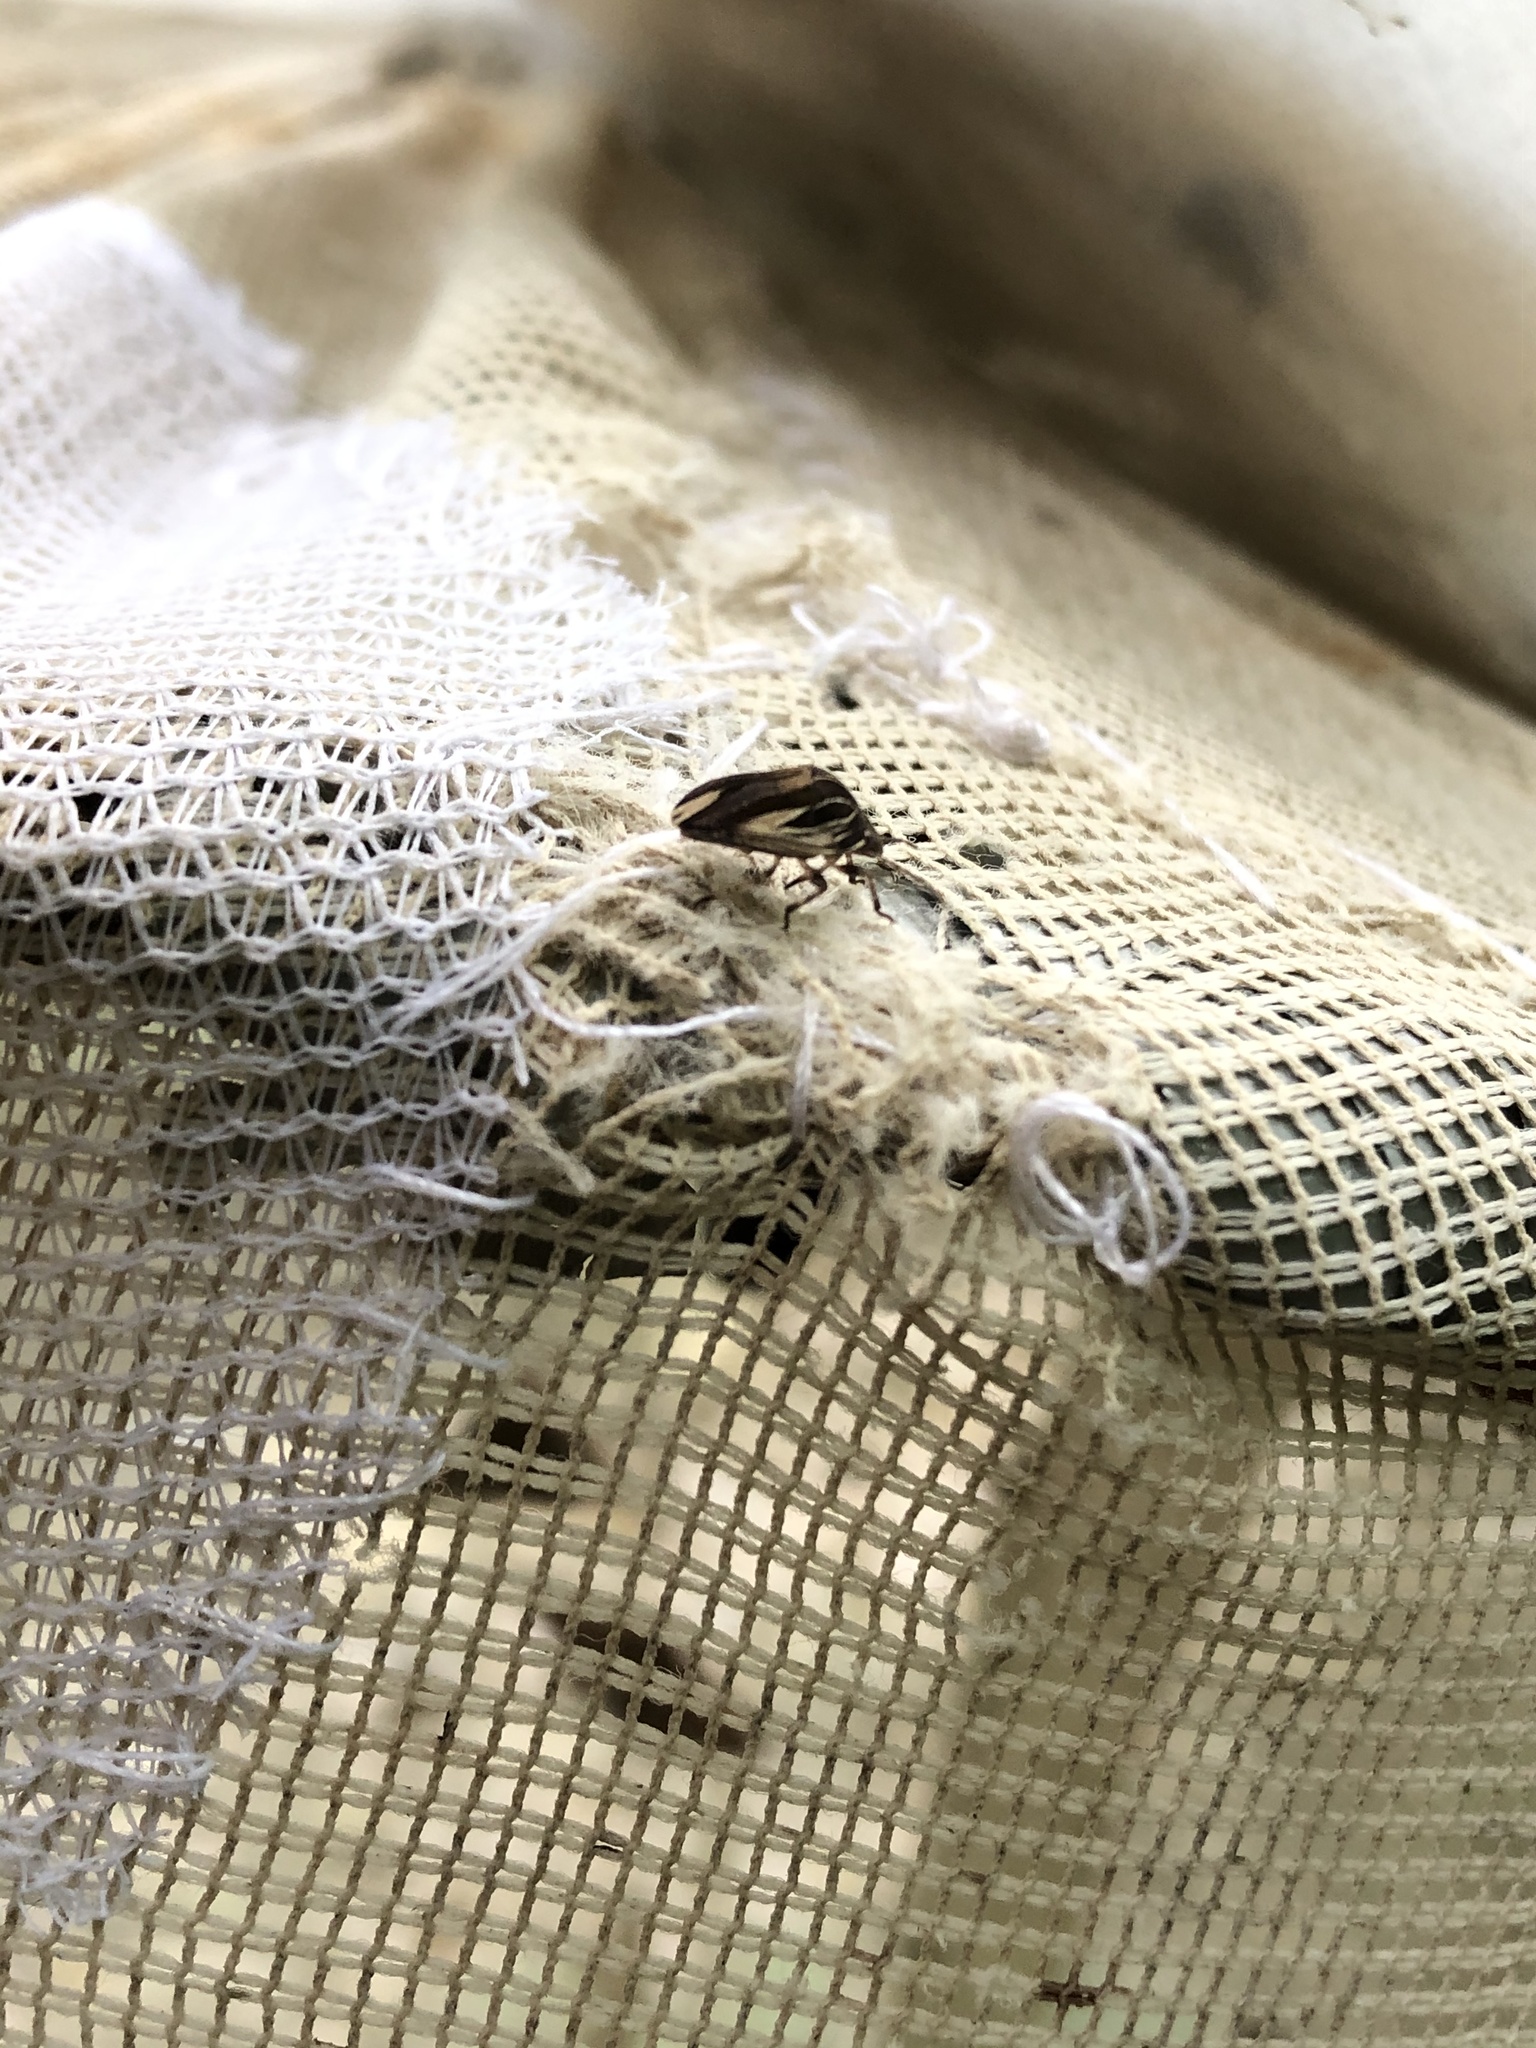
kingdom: Animalia
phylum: Arthropoda
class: Insecta
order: Hemiptera
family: Scutelleridae
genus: Symphylus
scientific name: Symphylus ramivitta
